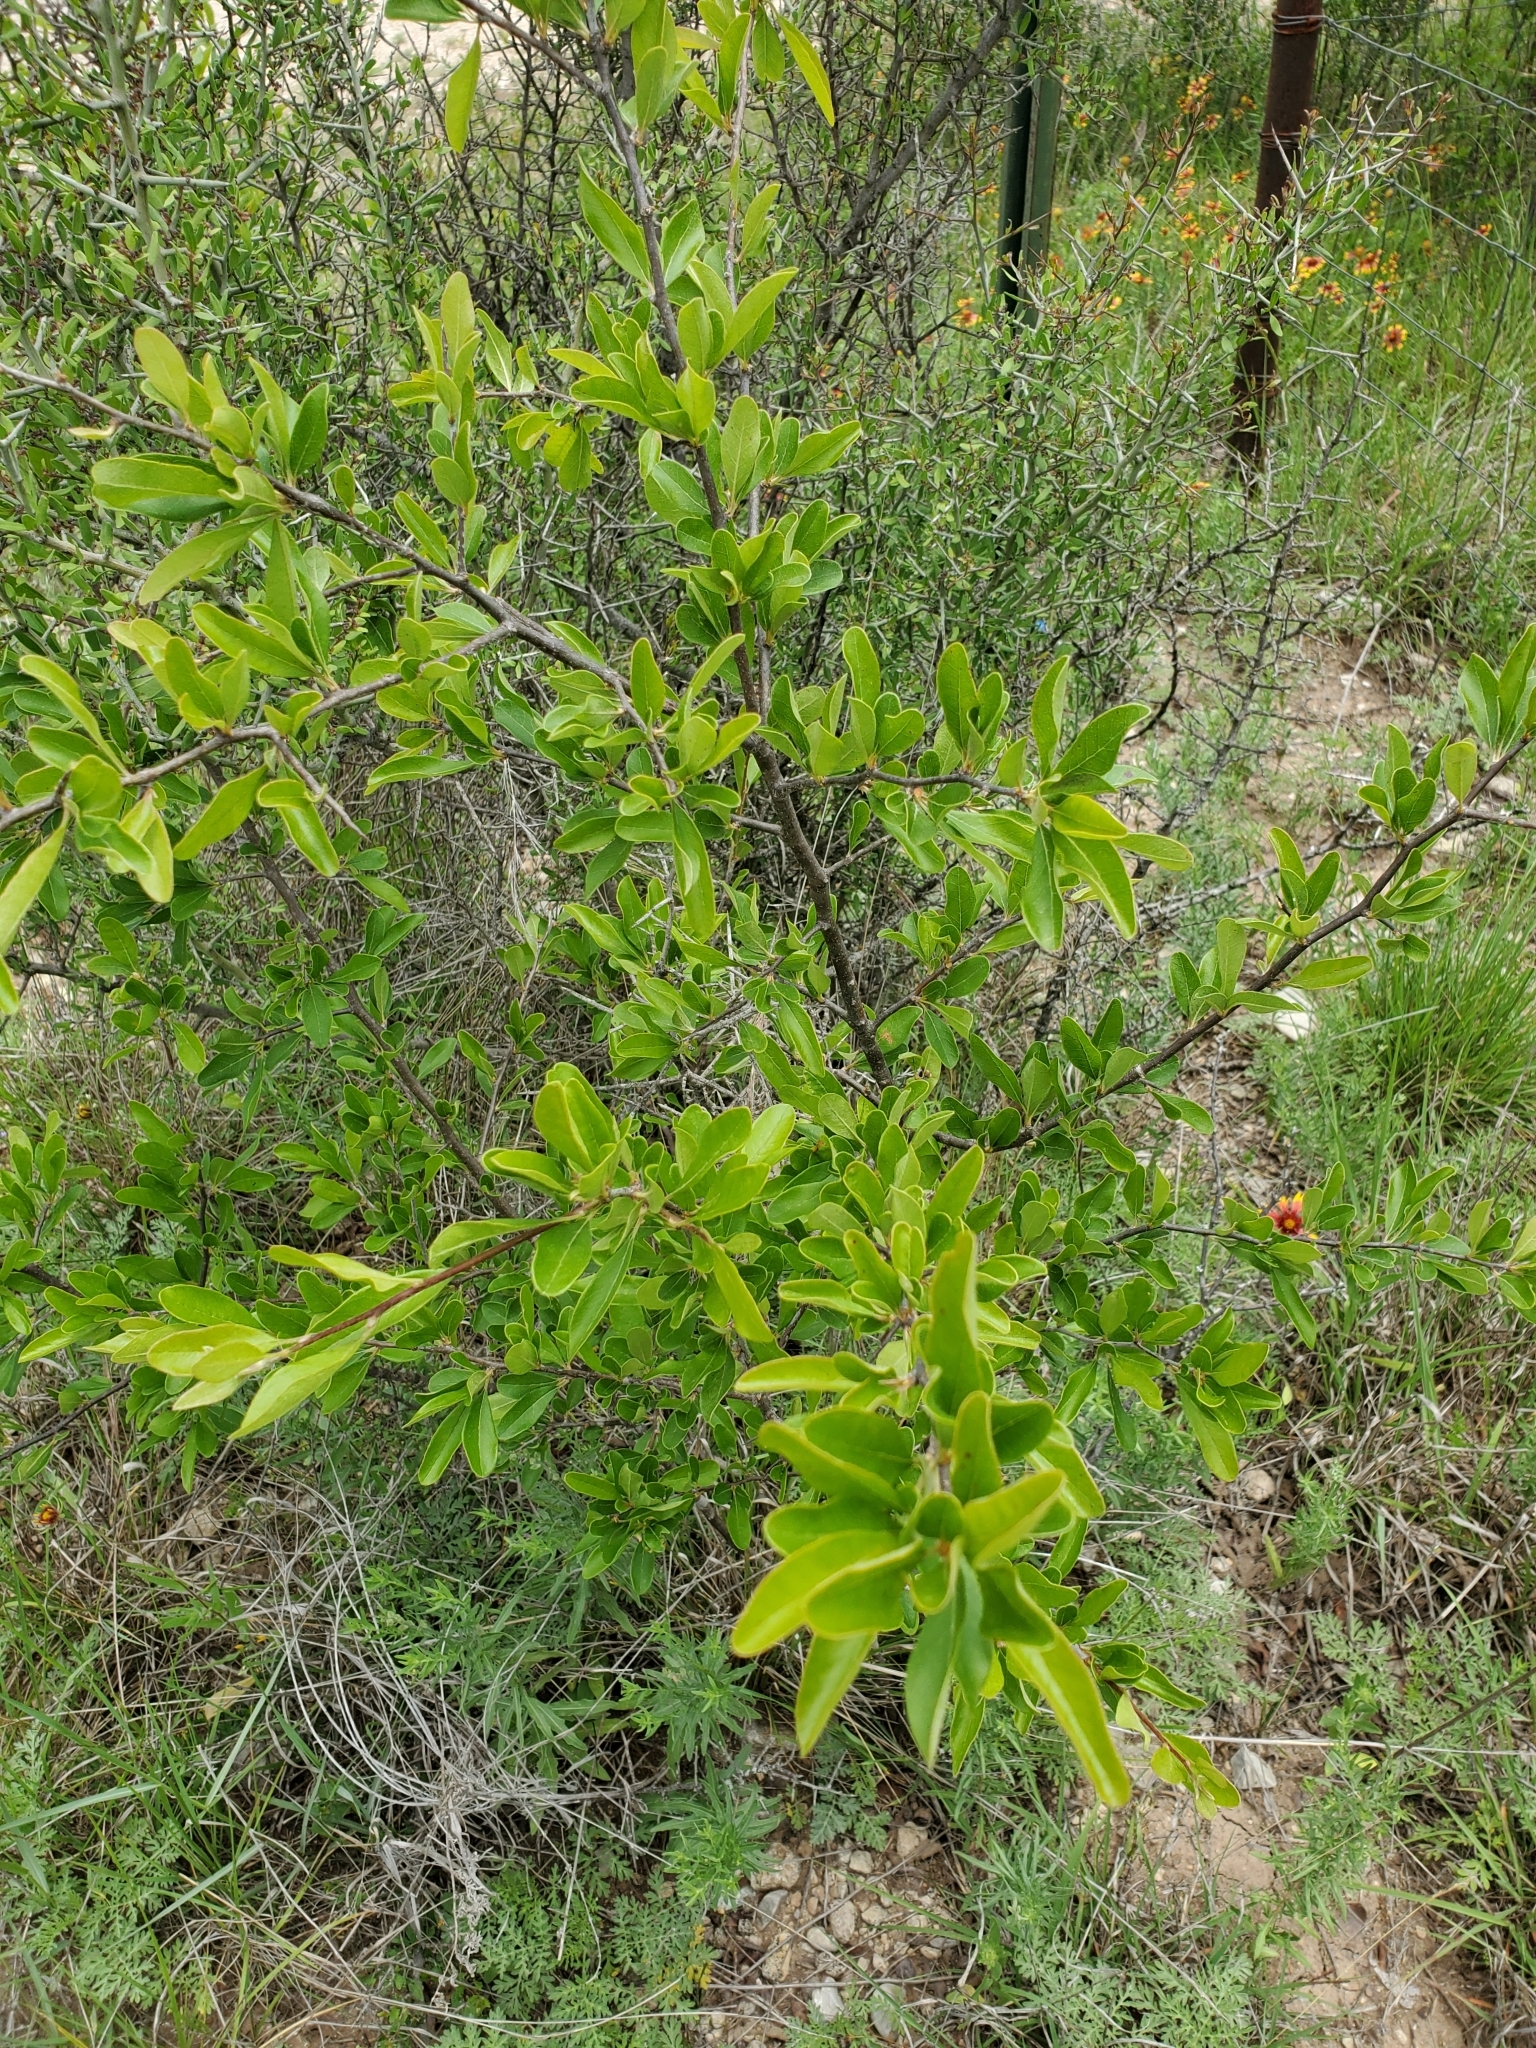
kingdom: Plantae
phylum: Tracheophyta
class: Magnoliopsida
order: Ericales
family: Sapotaceae
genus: Sideroxylon
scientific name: Sideroxylon lanuginosum
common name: Chittamwood
